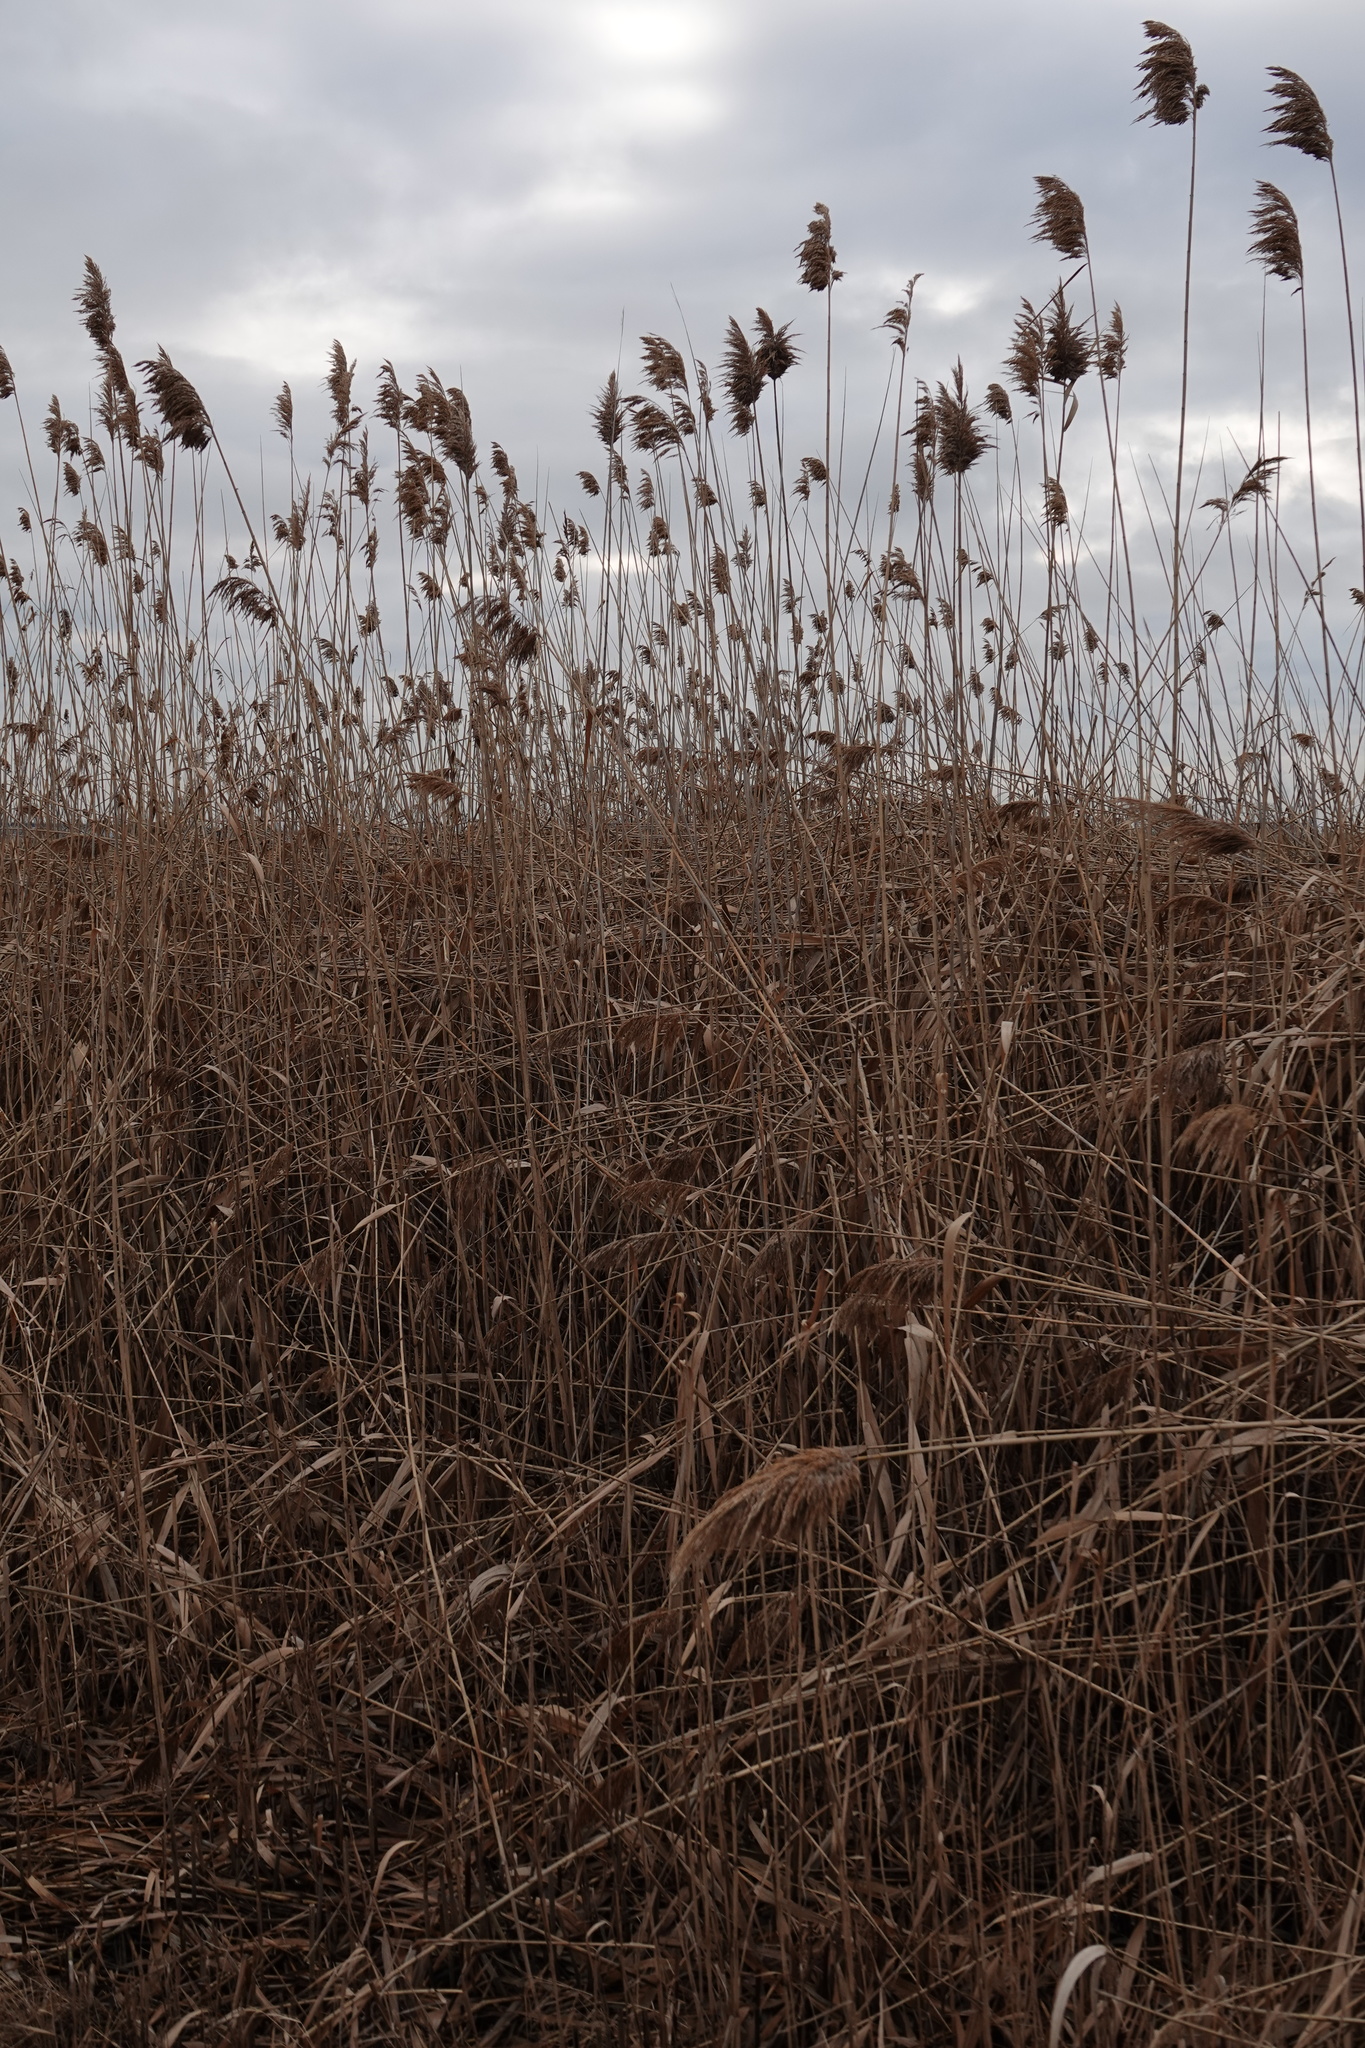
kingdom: Plantae
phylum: Tracheophyta
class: Liliopsida
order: Poales
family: Poaceae
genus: Phragmites
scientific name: Phragmites australis
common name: Common reed
